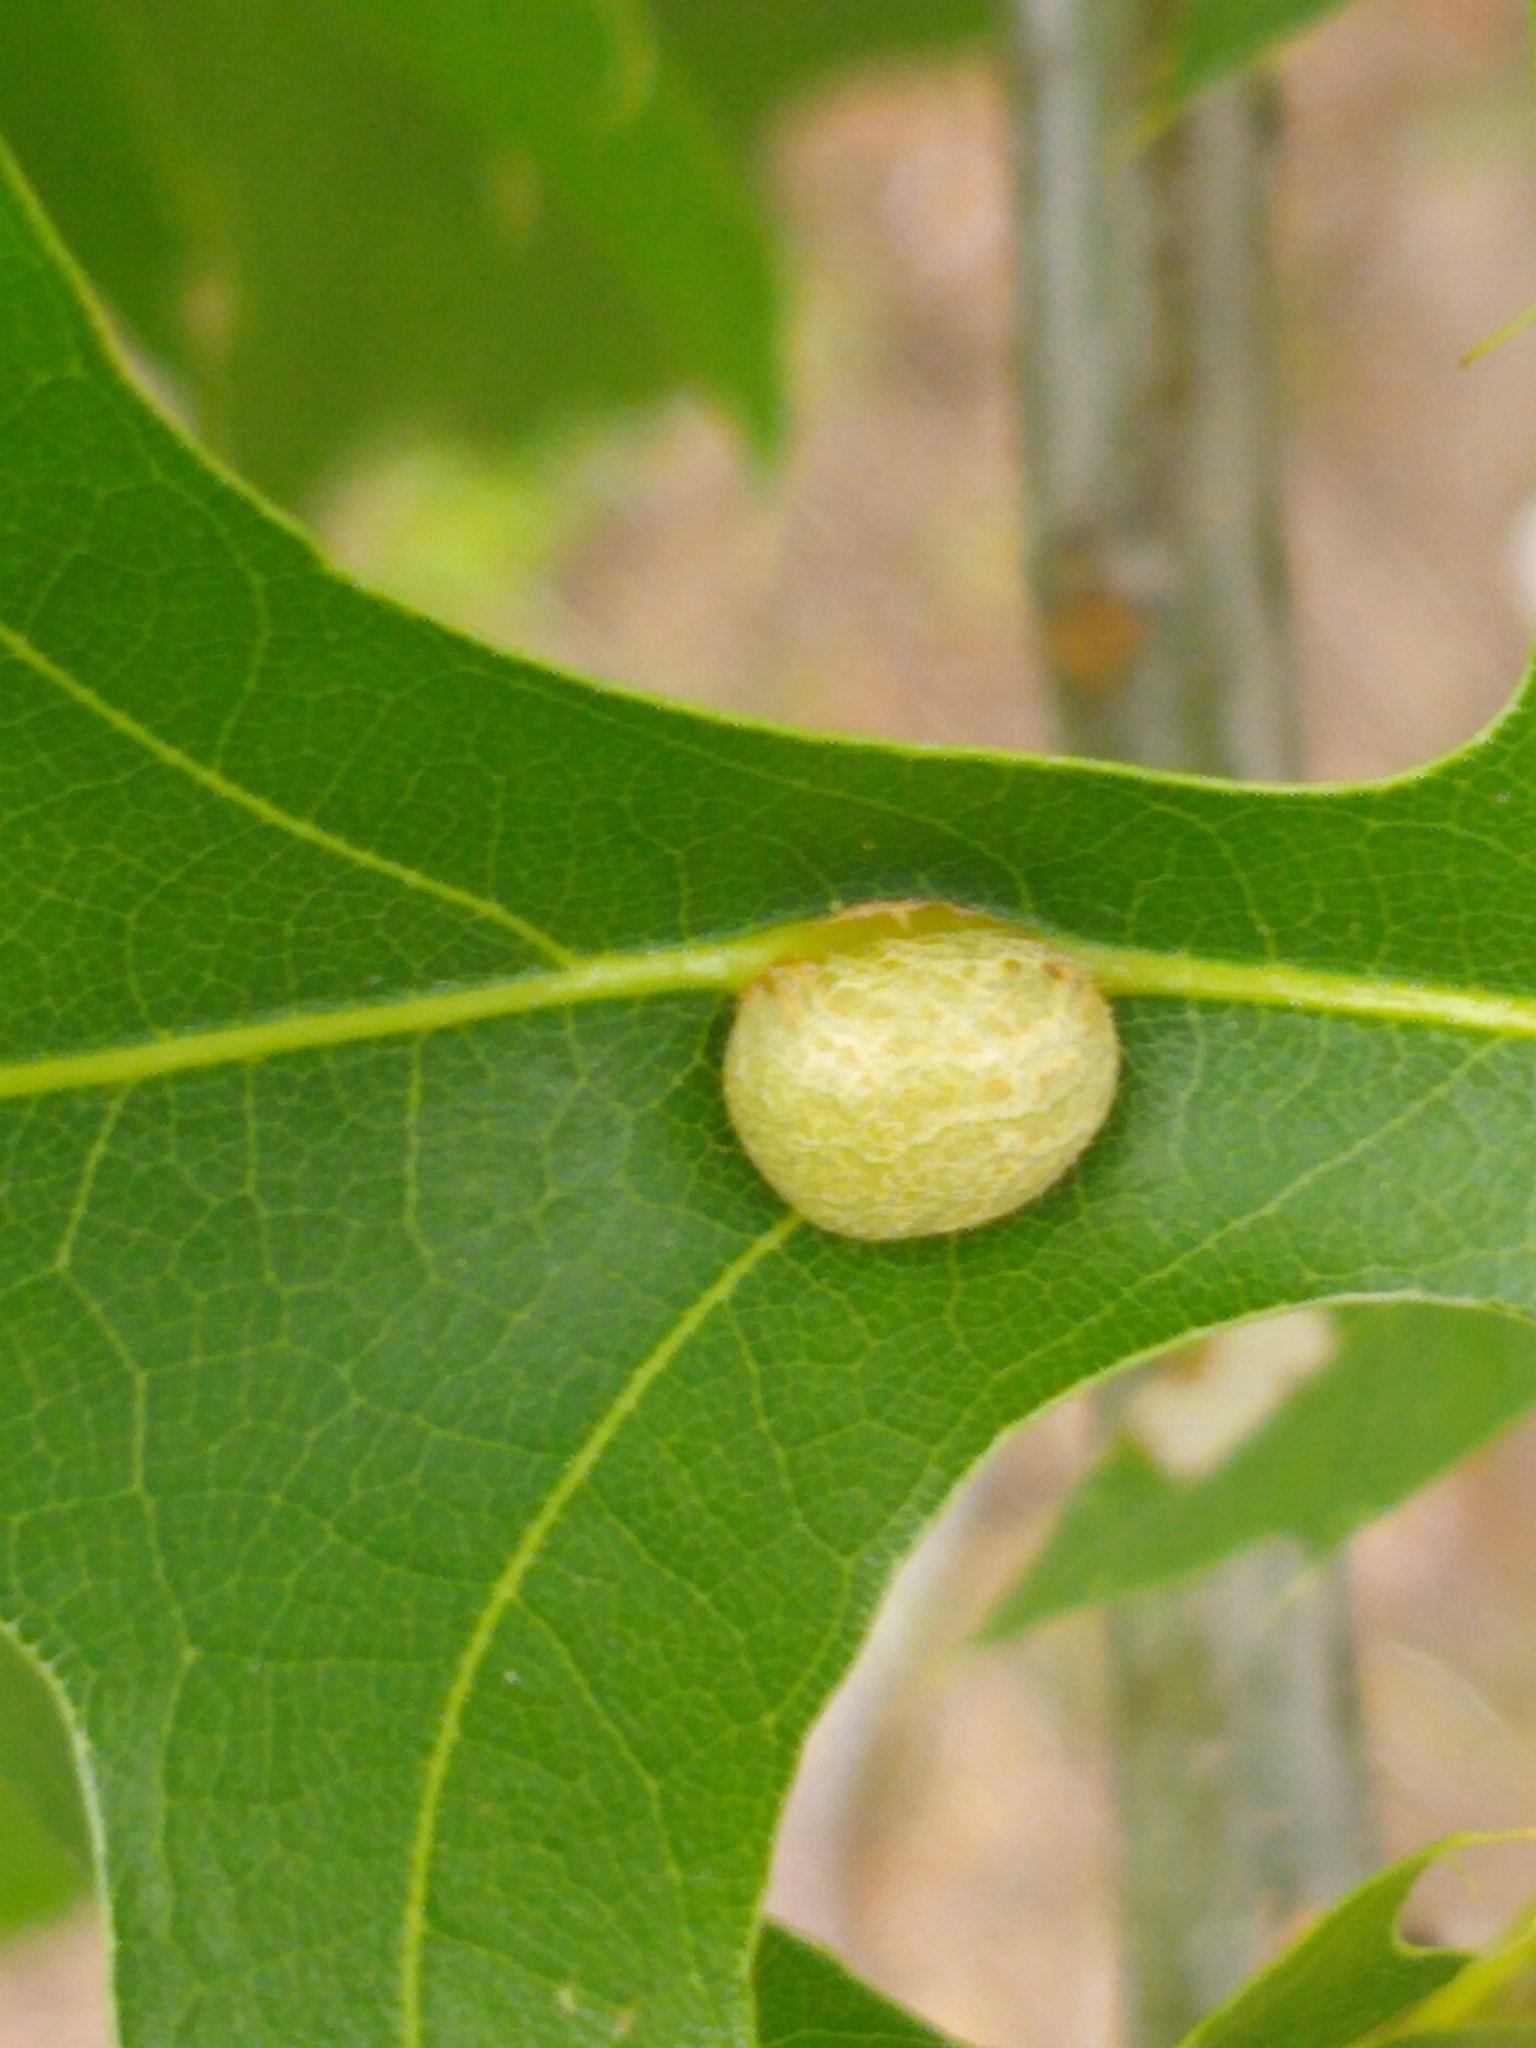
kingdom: Animalia
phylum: Arthropoda
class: Insecta
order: Diptera
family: Cecidomyiidae
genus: Polystepha
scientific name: Polystepha pilulae
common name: Oak leaf gall midge
